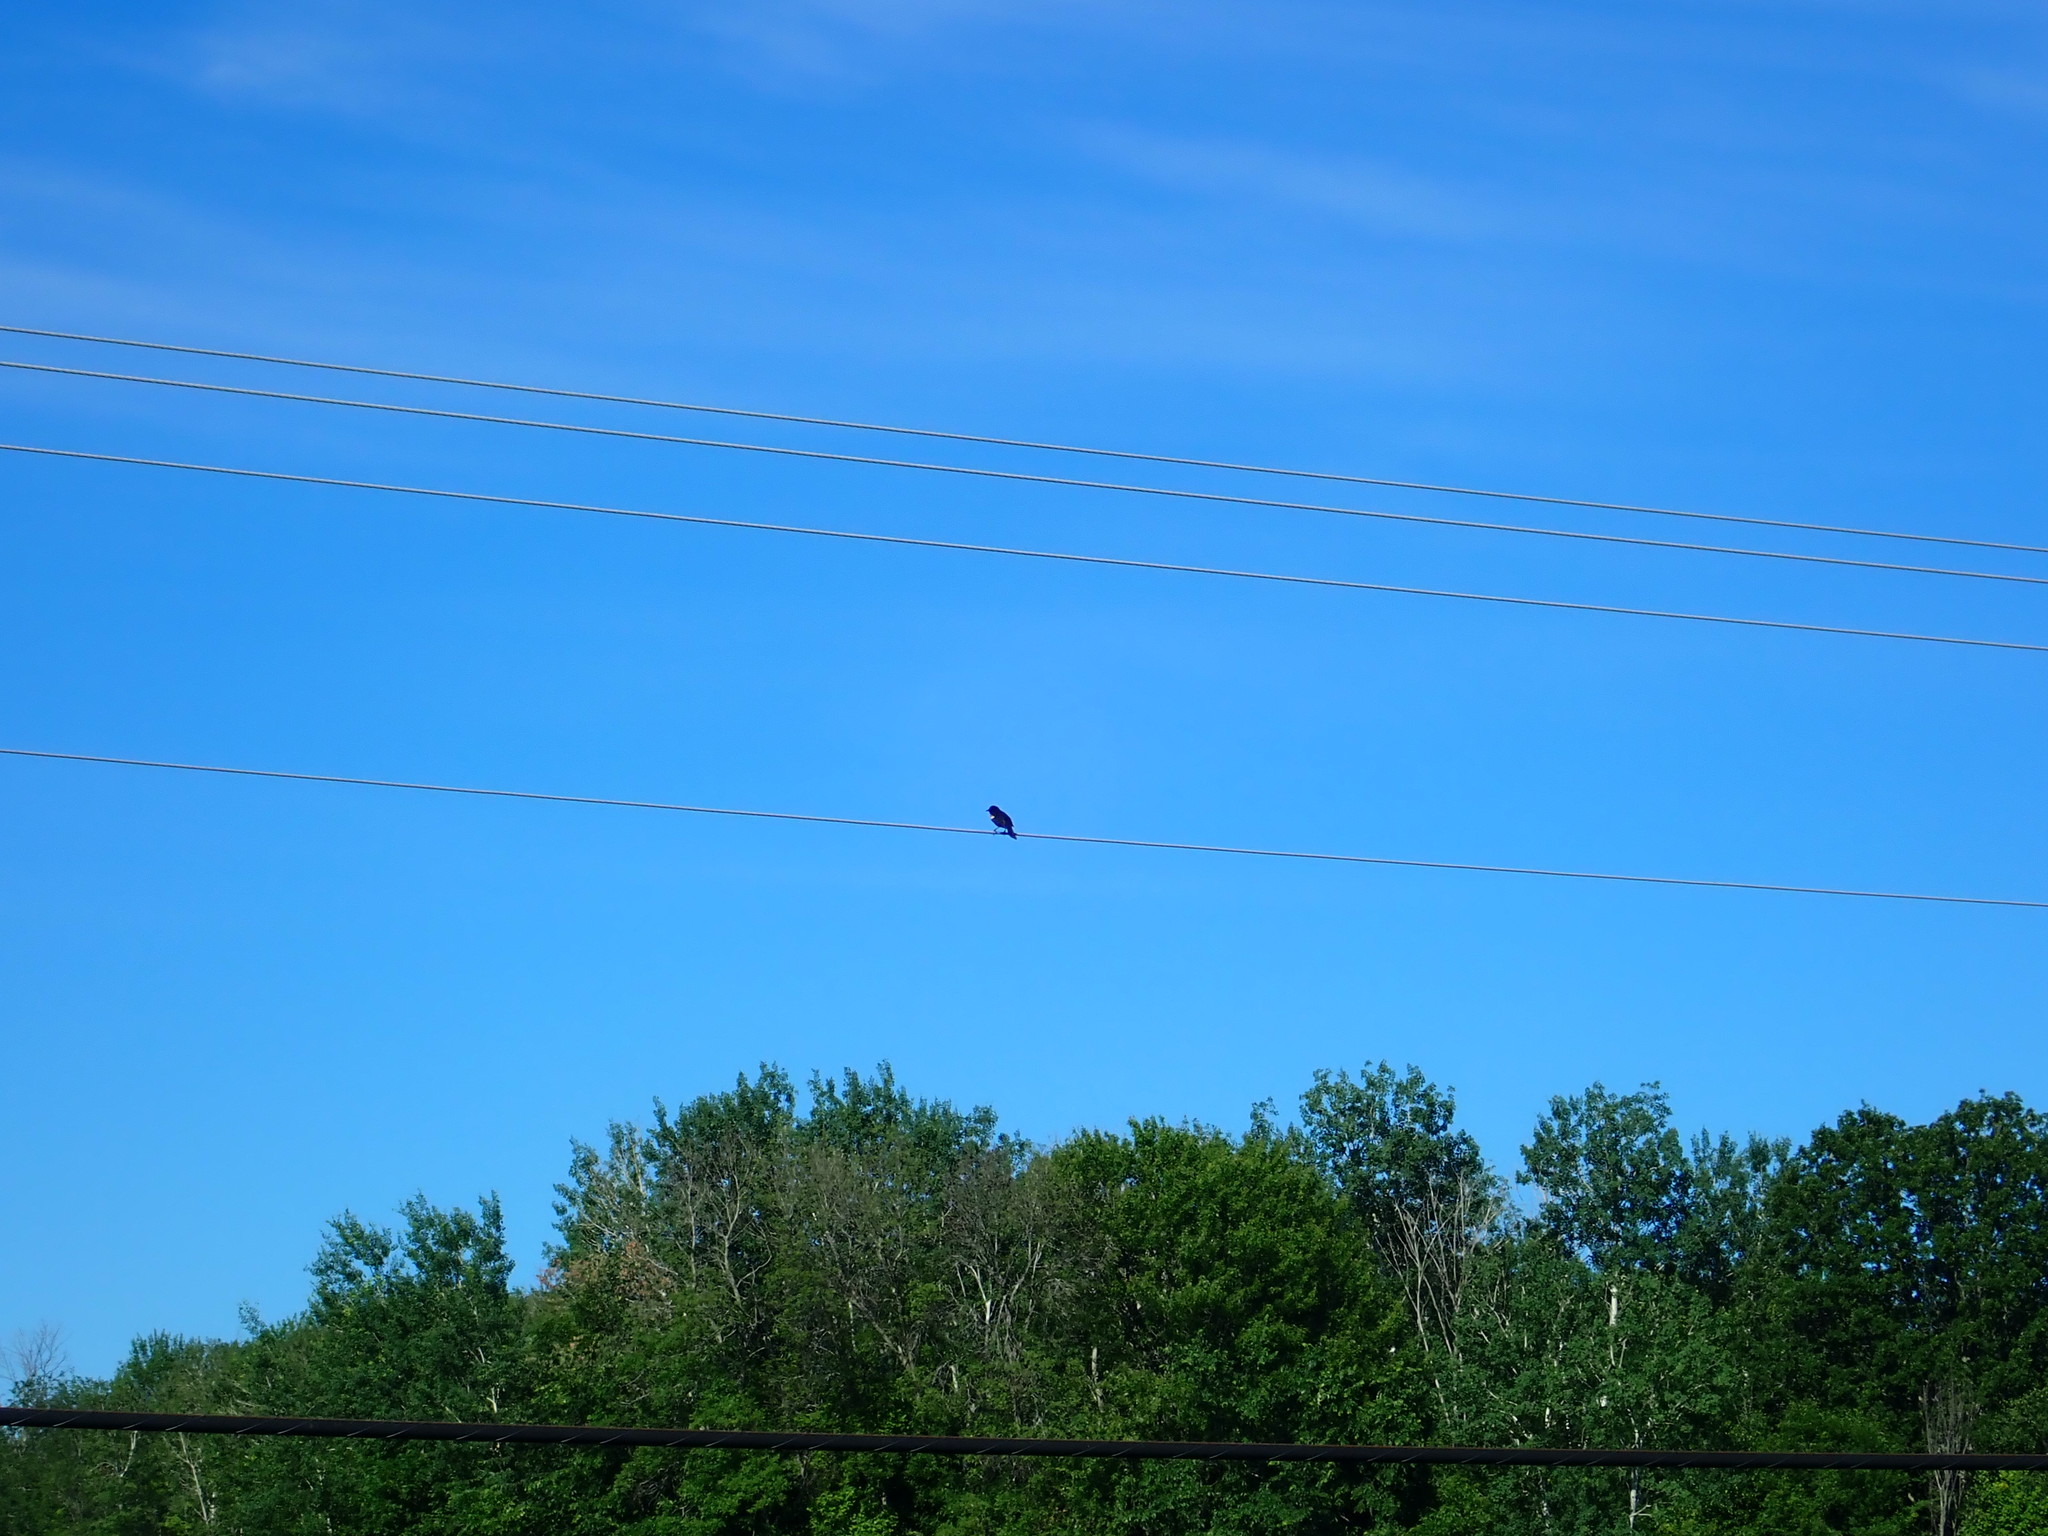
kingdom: Animalia
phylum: Chordata
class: Aves
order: Passeriformes
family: Icteridae
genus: Agelaius
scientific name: Agelaius phoeniceus
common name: Red-winged blackbird
